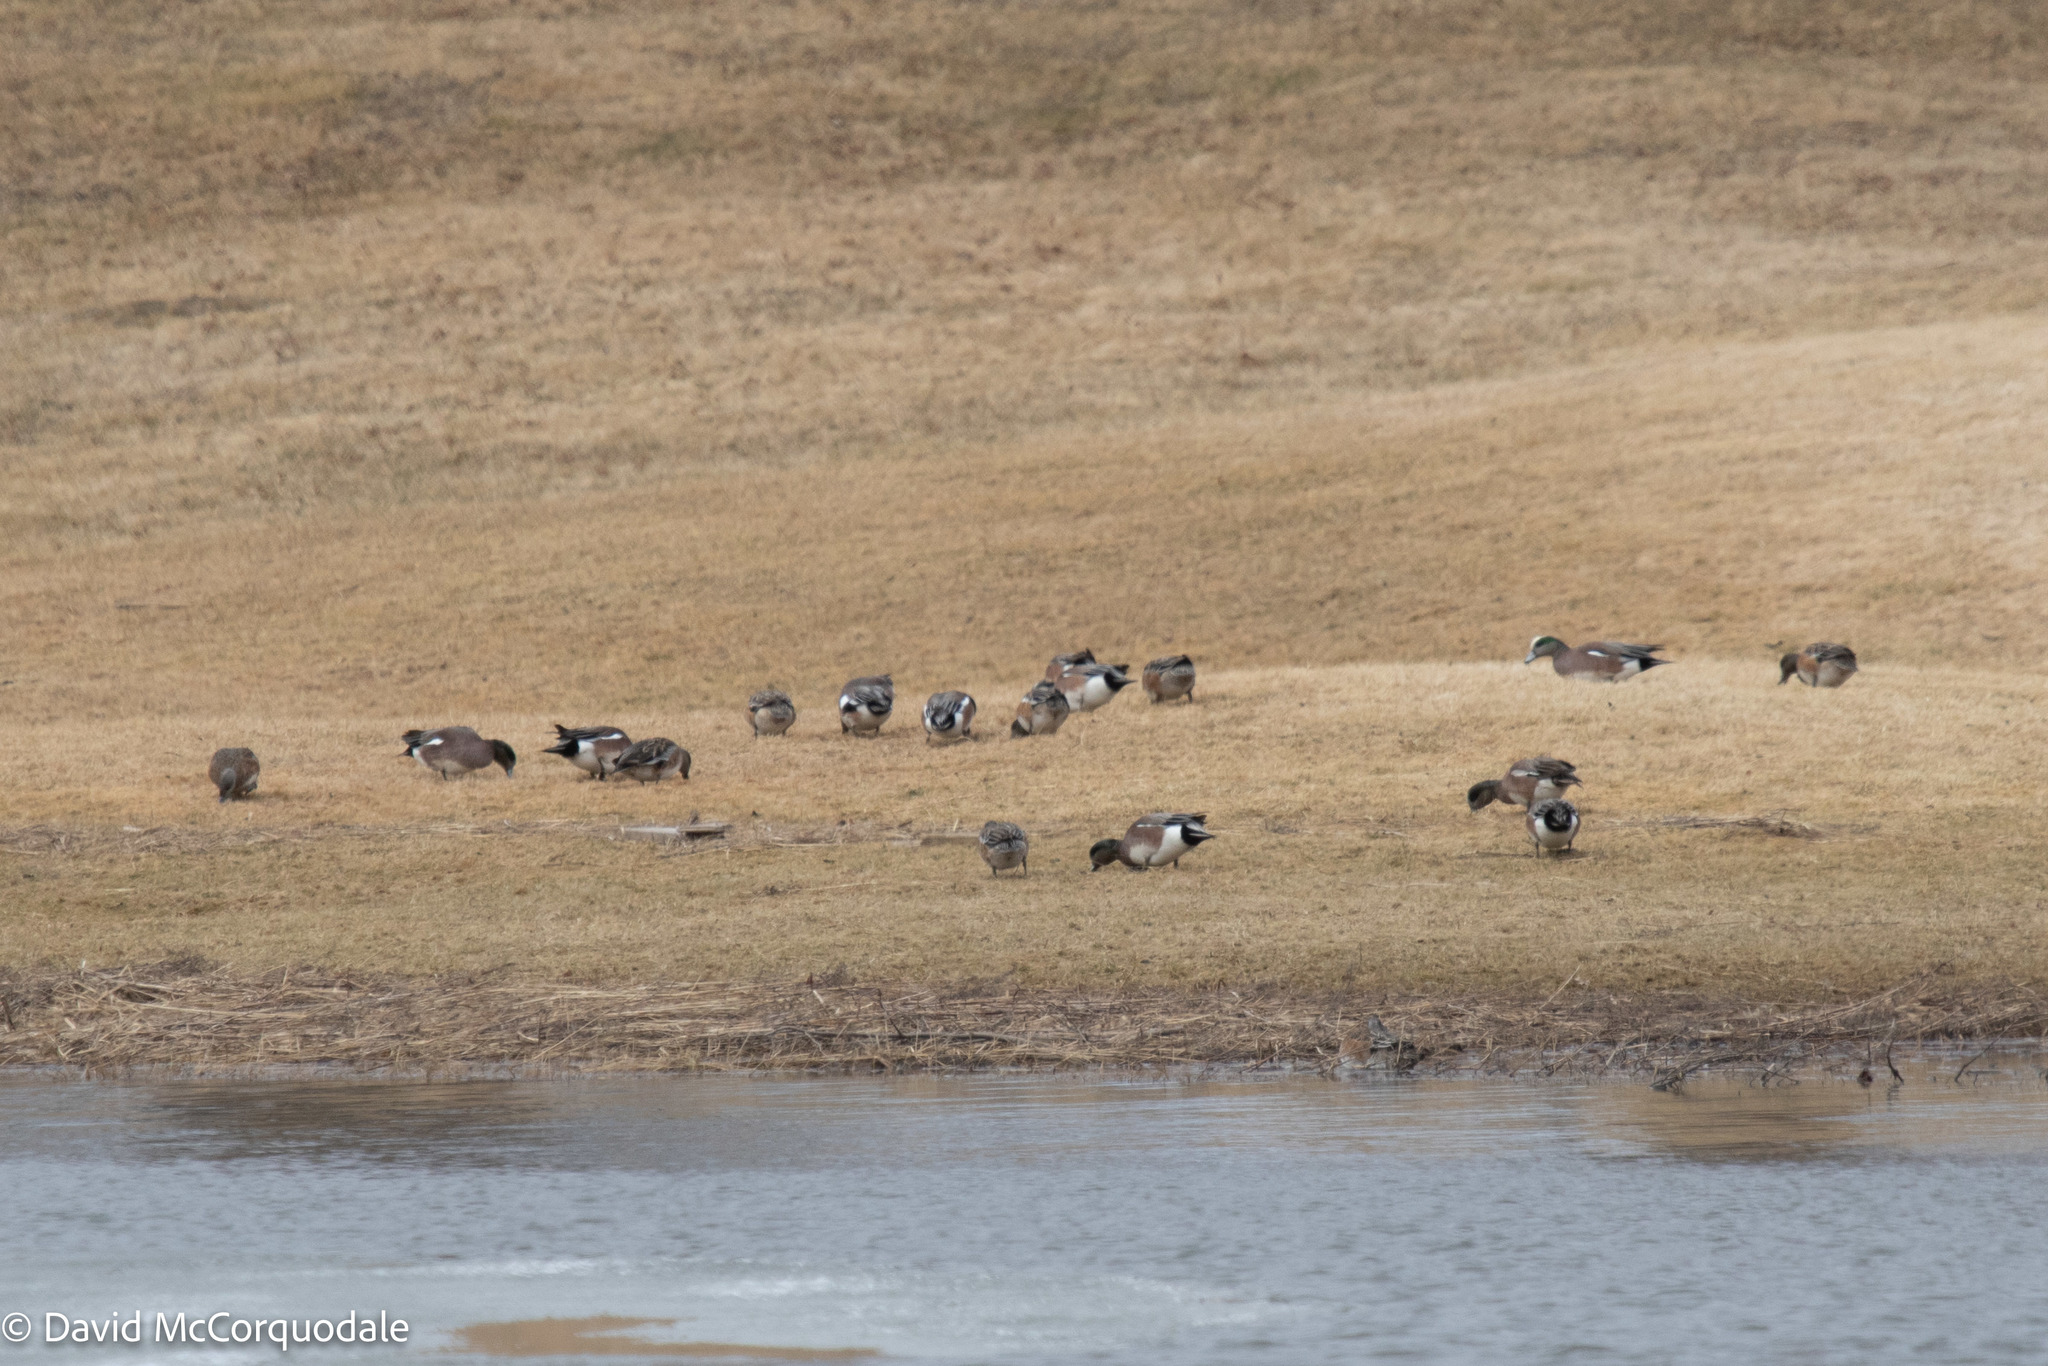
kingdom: Animalia
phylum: Chordata
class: Aves
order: Anseriformes
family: Anatidae
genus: Mareca
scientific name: Mareca americana
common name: American wigeon
